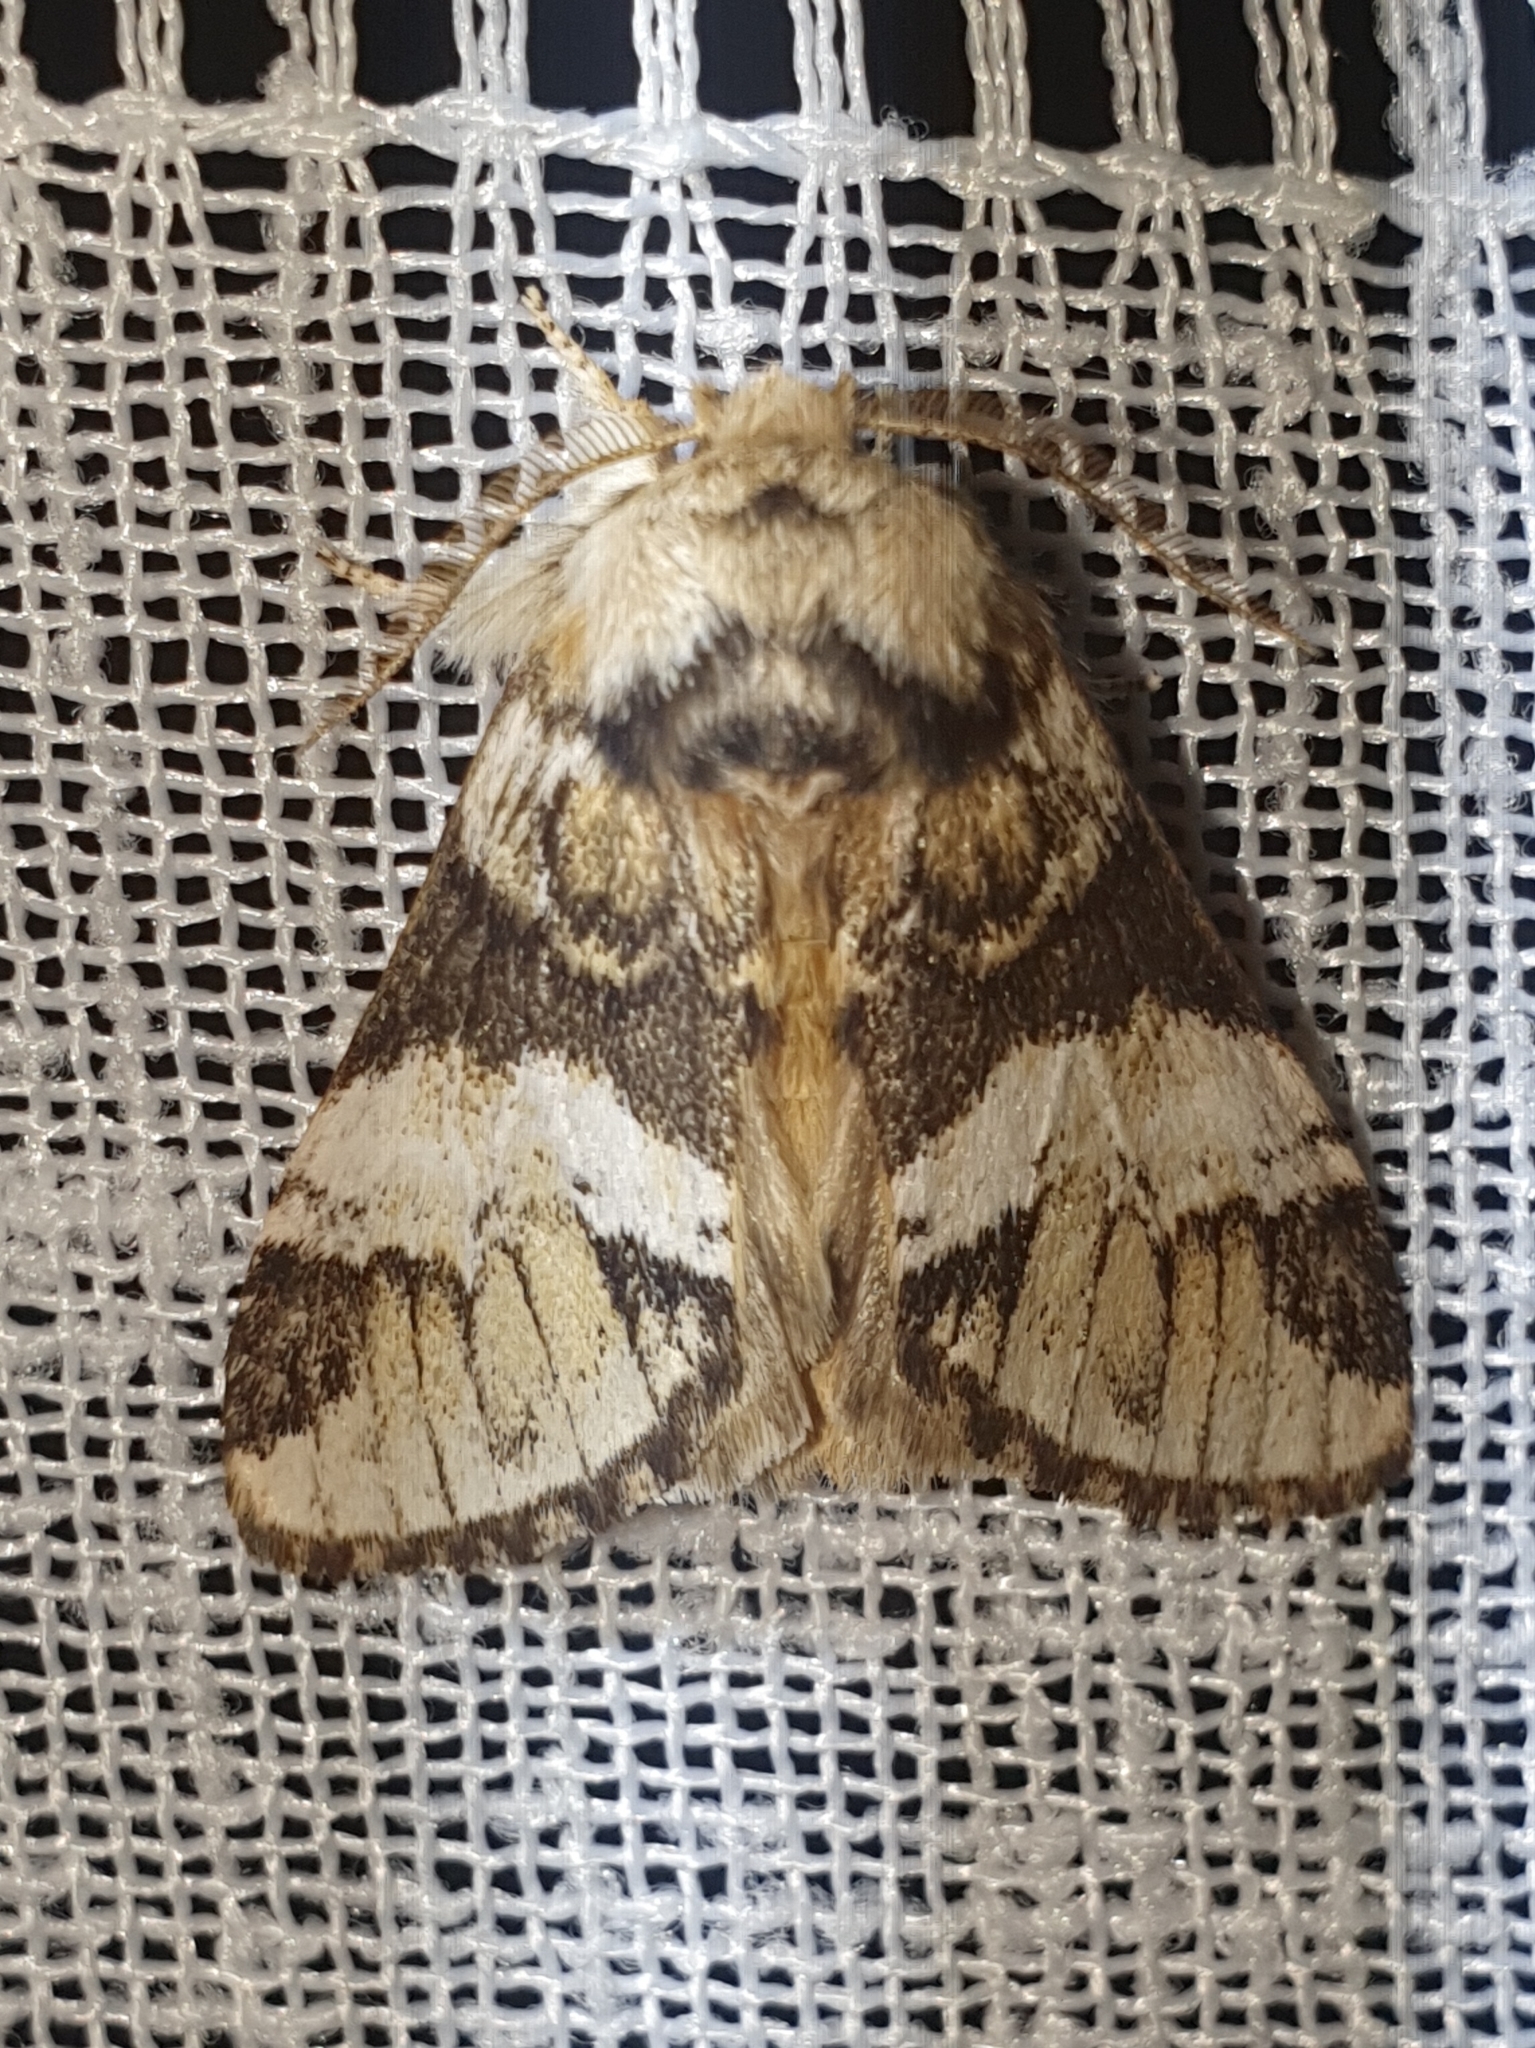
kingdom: Animalia
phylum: Arthropoda
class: Insecta
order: Lepidoptera
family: Notodontidae
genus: Drymonia
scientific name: Drymonia dodonaea
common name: Marbled brown
